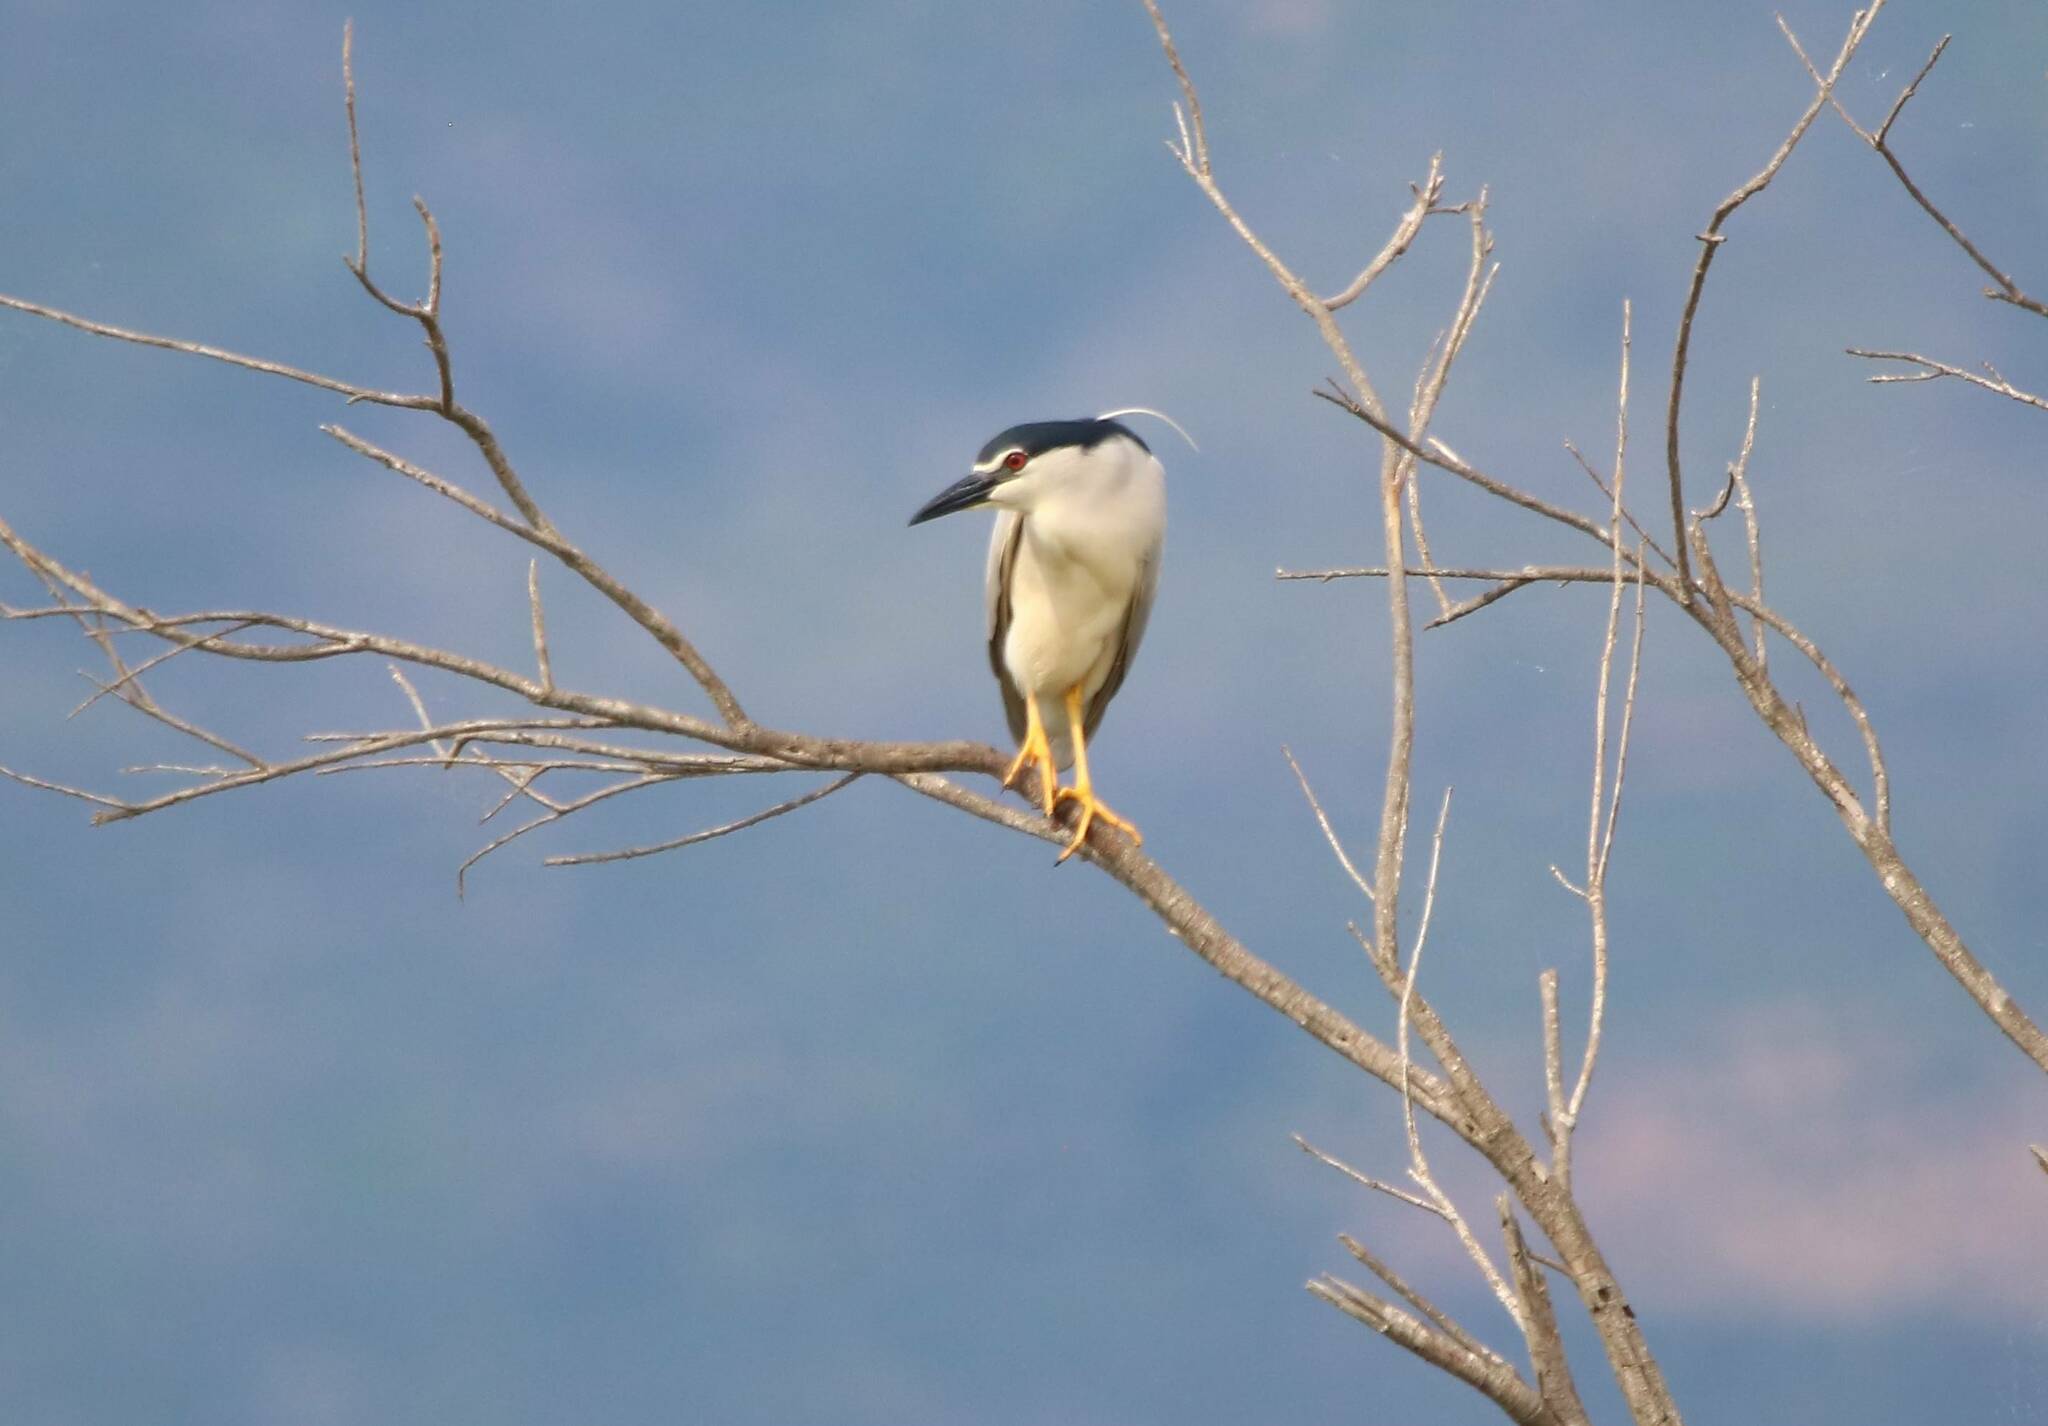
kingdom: Animalia
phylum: Chordata
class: Aves
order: Pelecaniformes
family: Ardeidae
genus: Nycticorax
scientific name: Nycticorax nycticorax
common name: Black-crowned night heron
